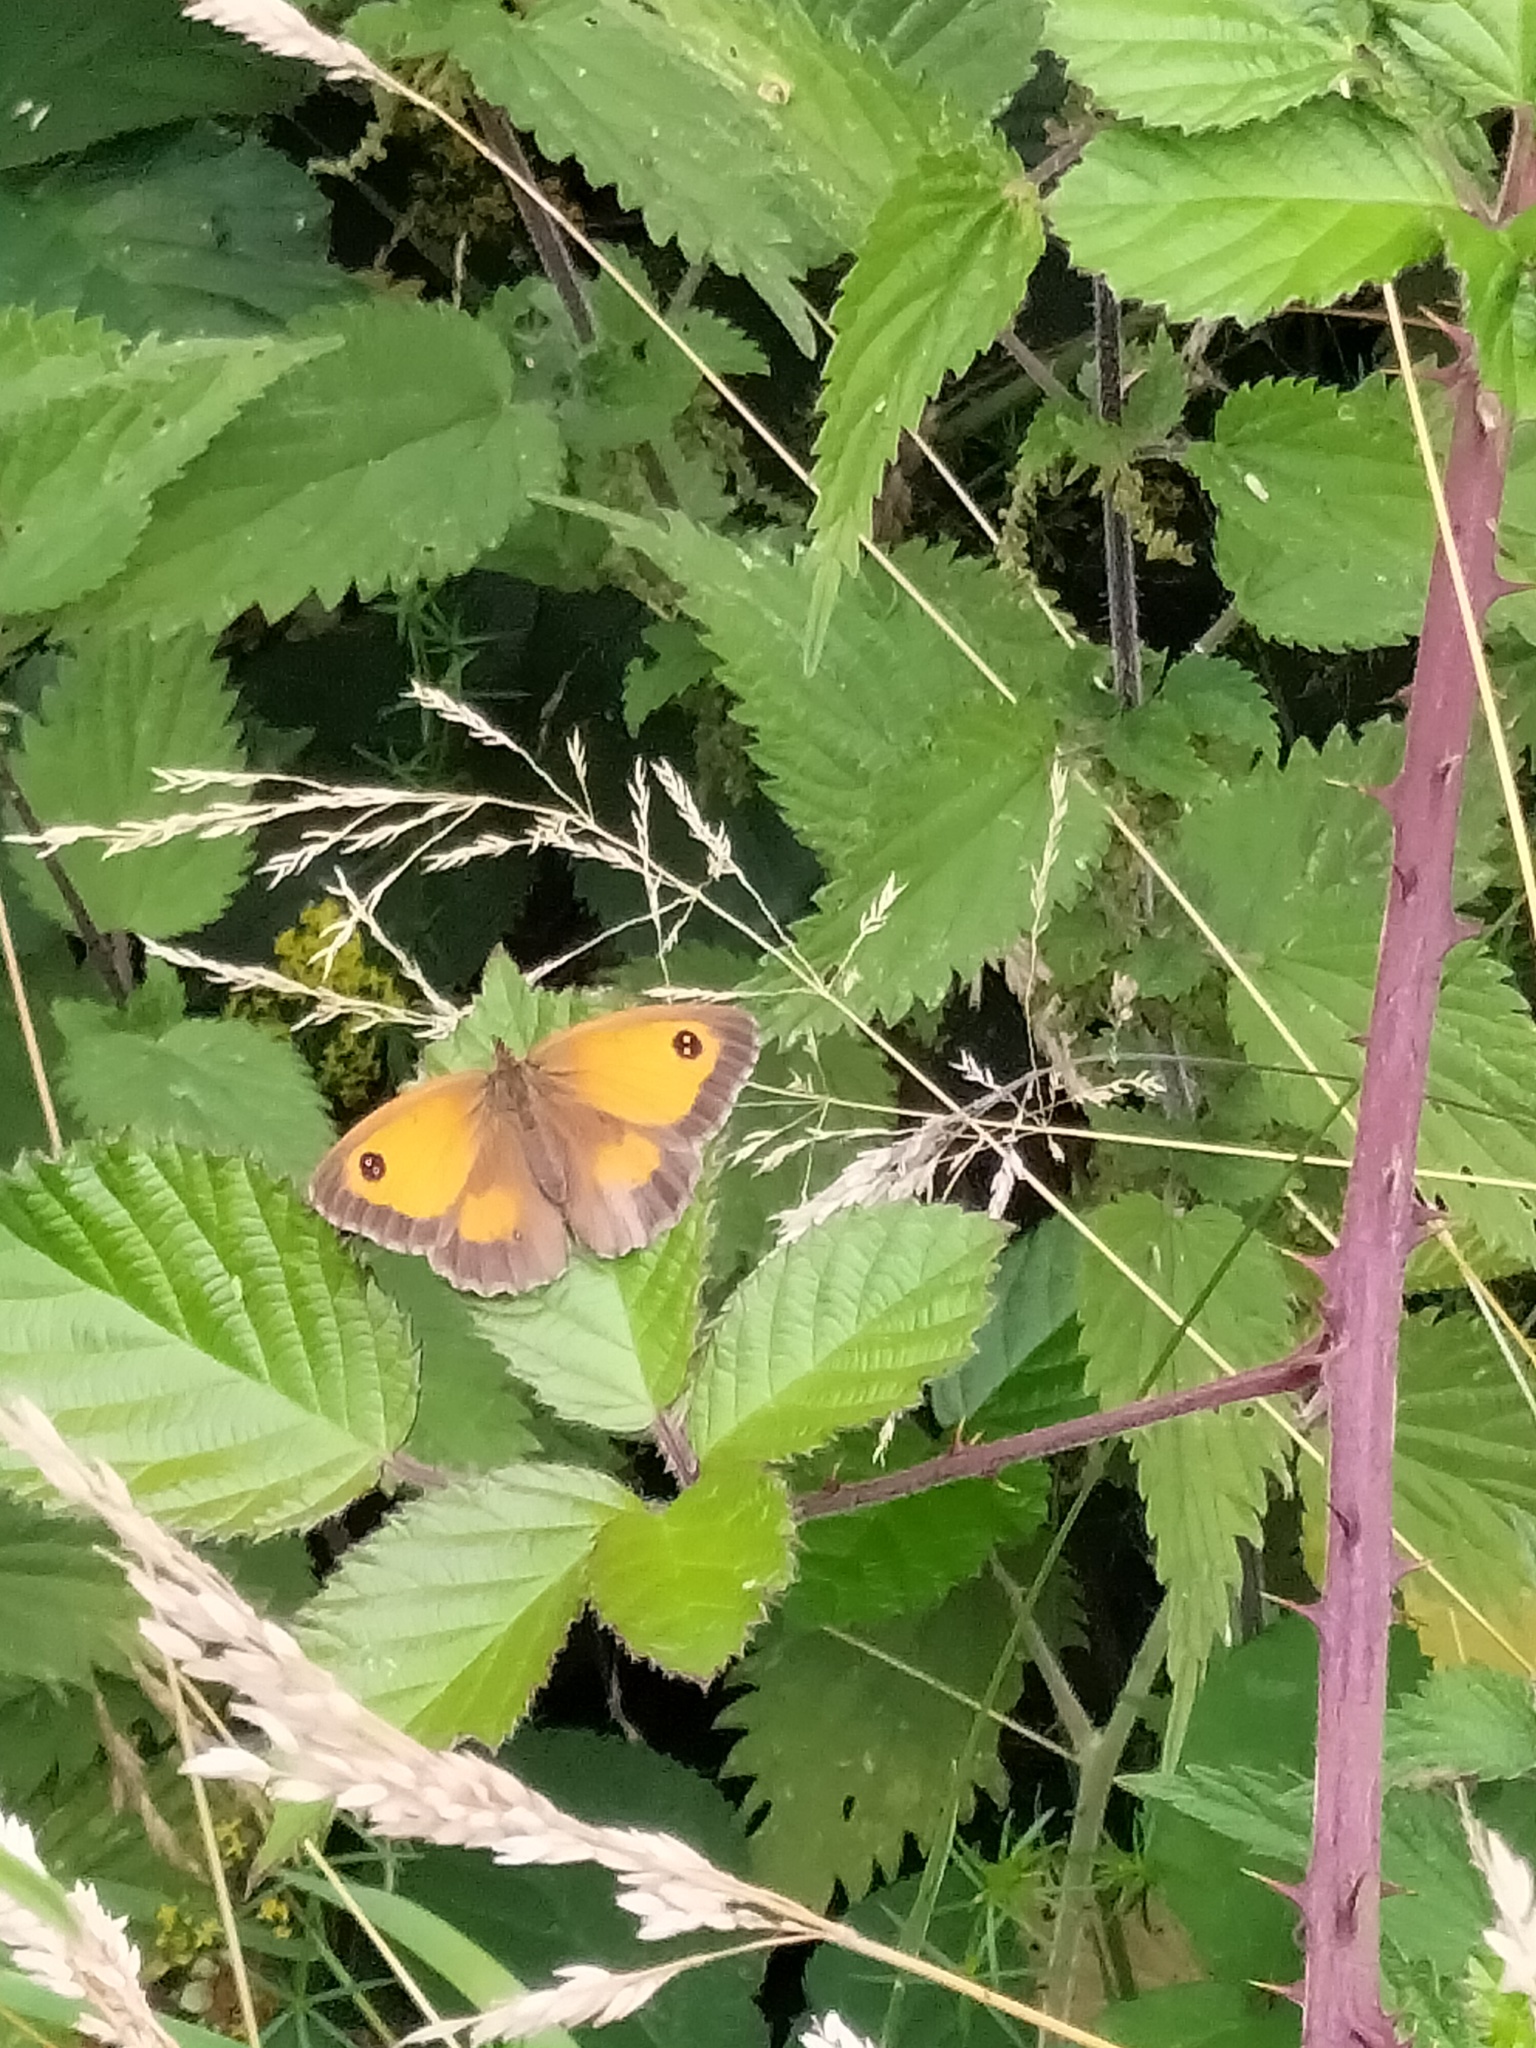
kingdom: Animalia
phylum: Arthropoda
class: Insecta
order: Lepidoptera
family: Nymphalidae
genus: Pyronia
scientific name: Pyronia tithonus
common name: Gatekeeper
